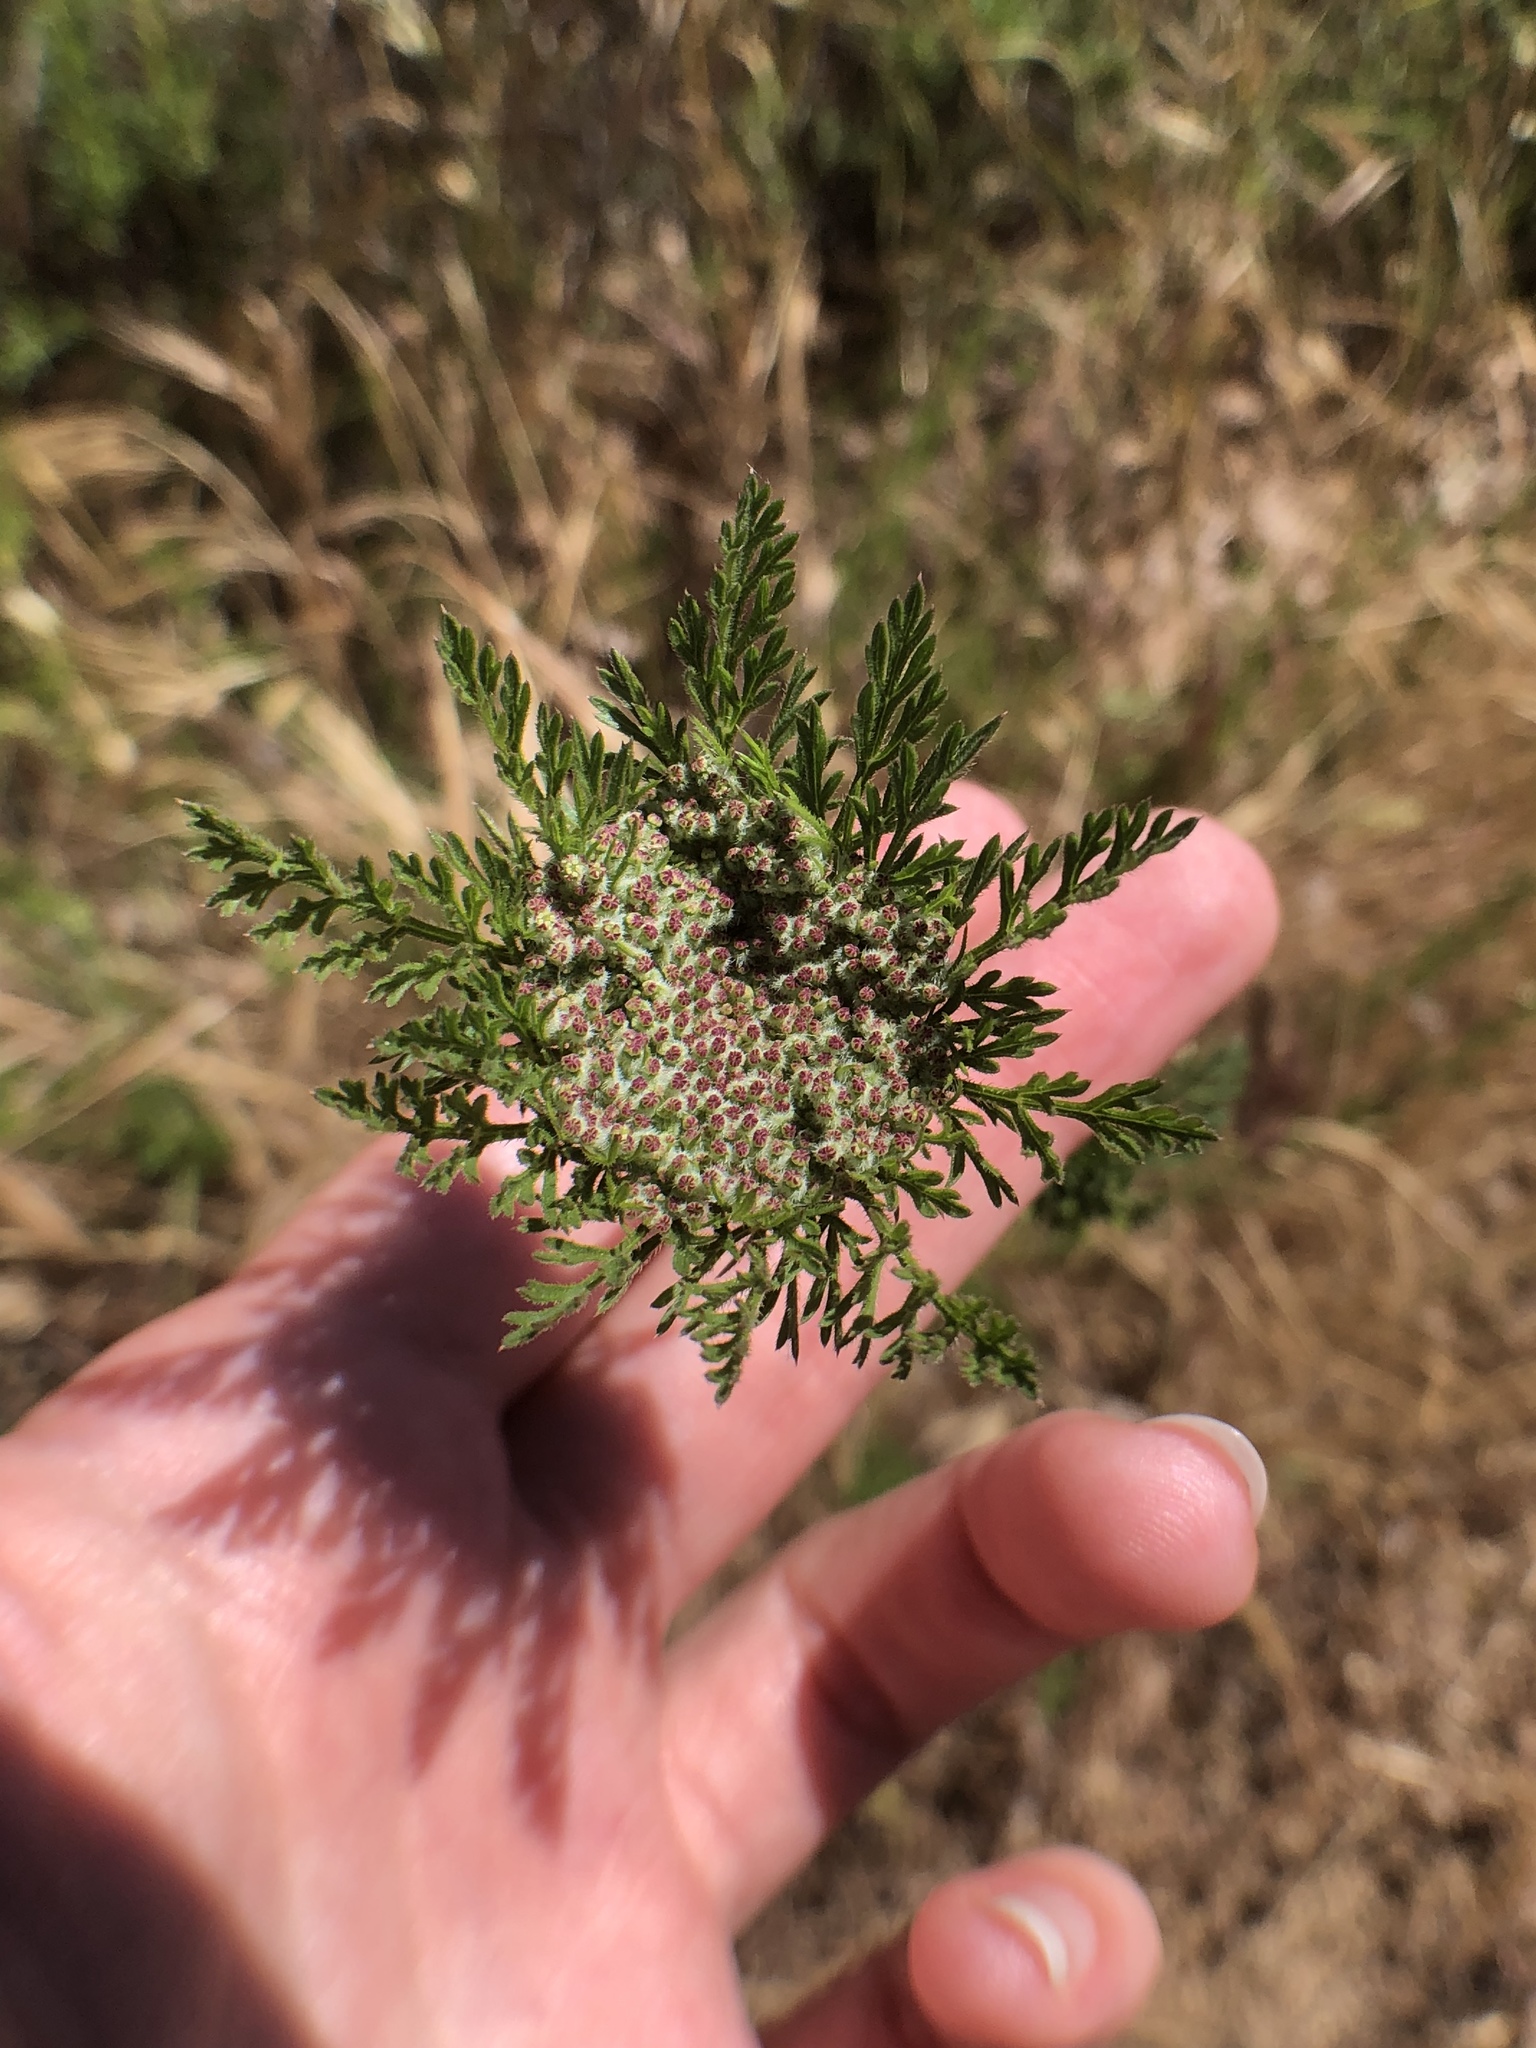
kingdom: Plantae
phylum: Tracheophyta
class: Magnoliopsida
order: Apiales
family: Apiaceae
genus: Daucus
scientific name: Daucus pusillus
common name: Southwest wild carrot
